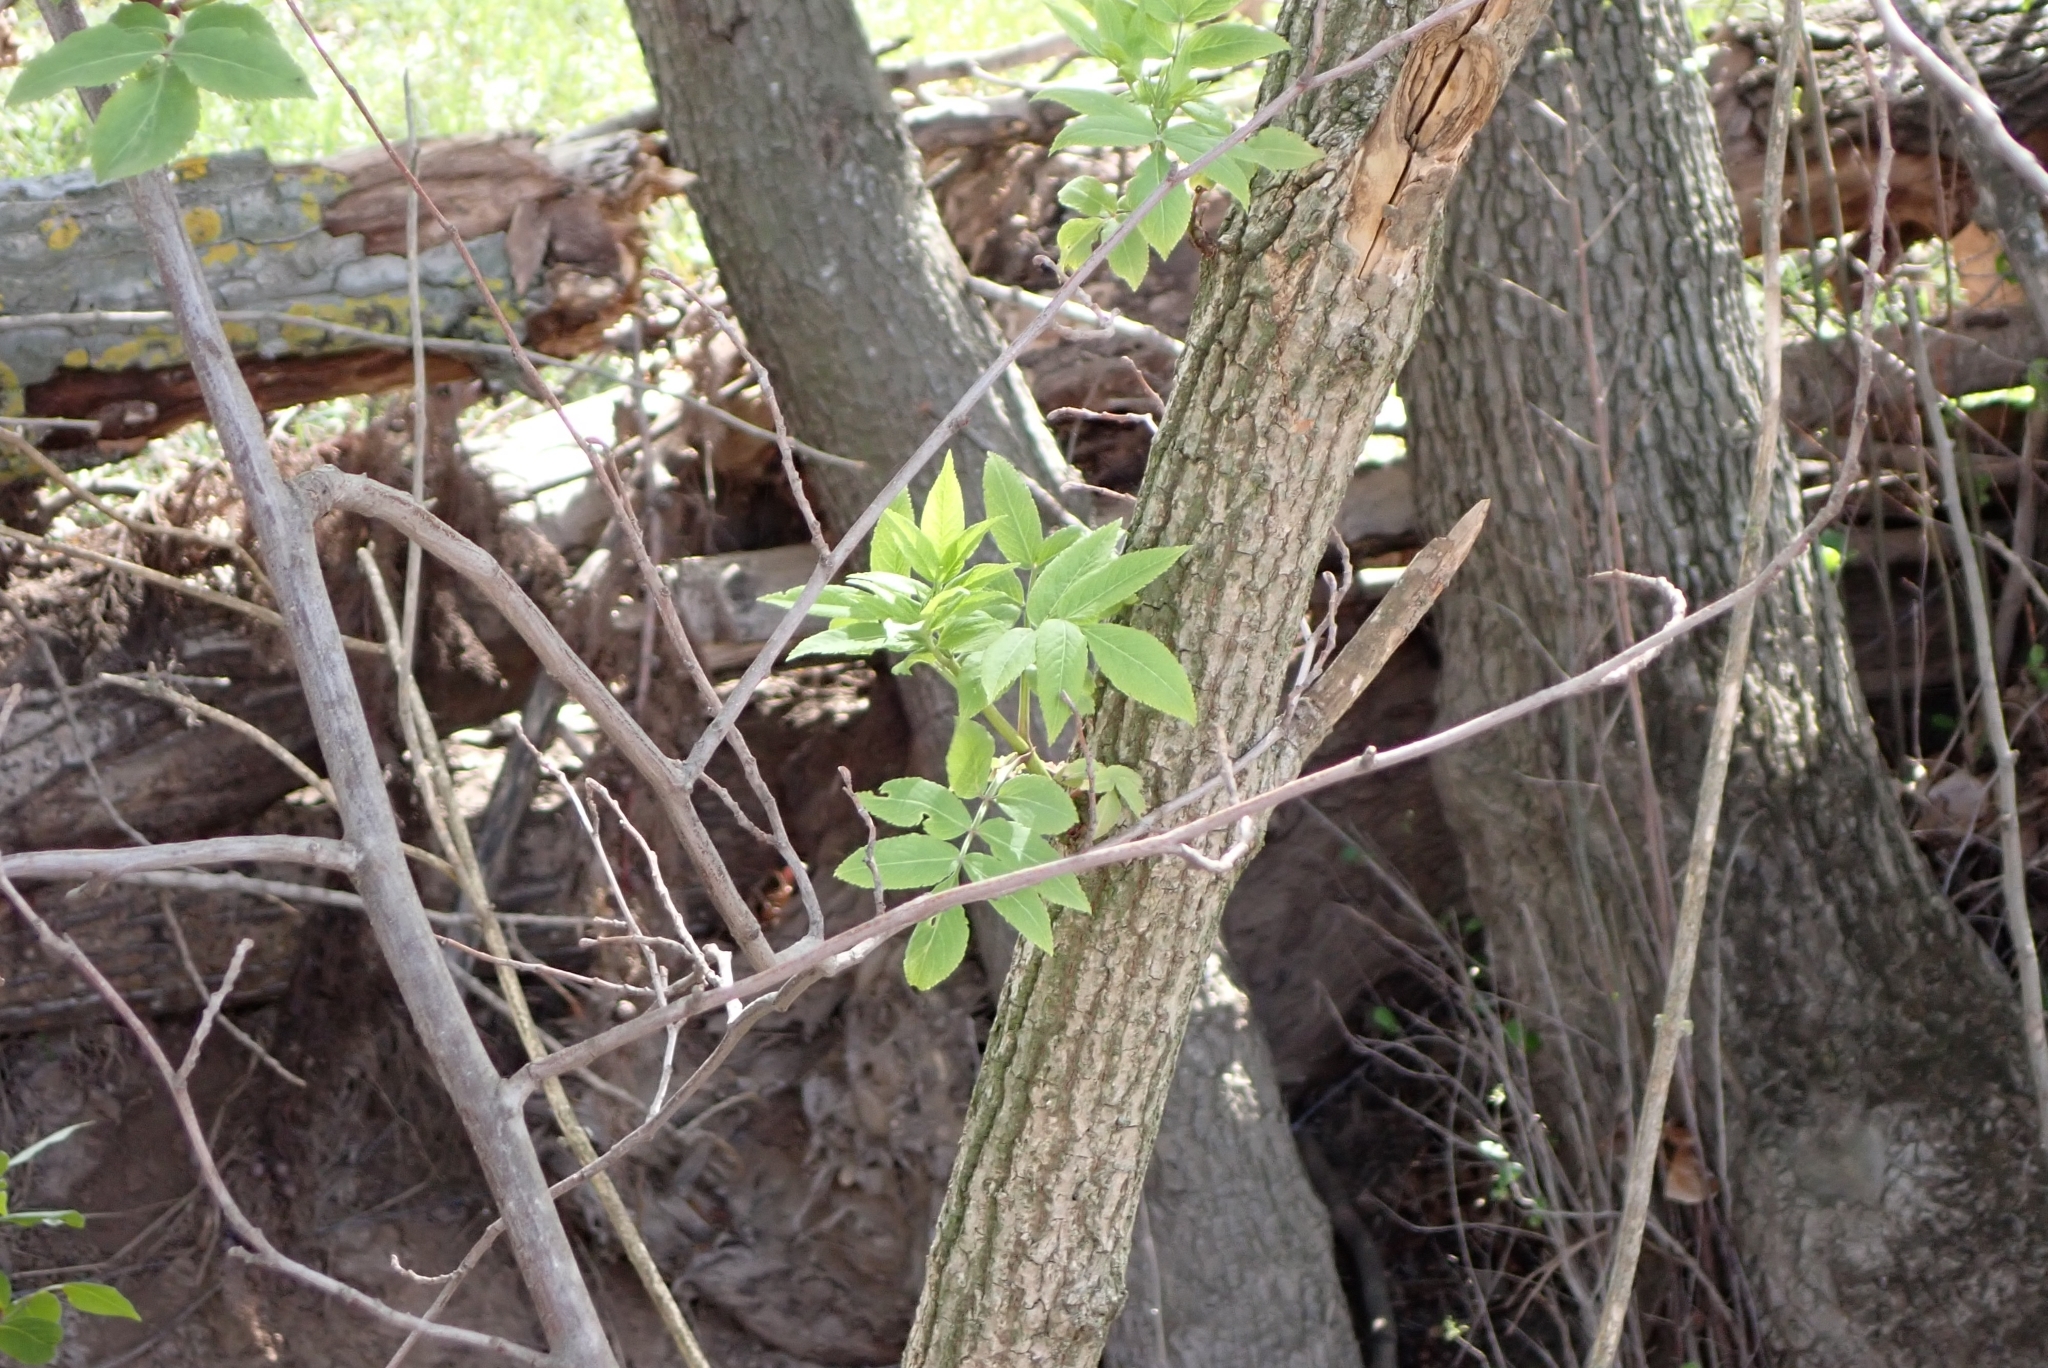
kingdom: Plantae
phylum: Tracheophyta
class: Magnoliopsida
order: Dipsacales
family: Viburnaceae
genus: Sambucus
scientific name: Sambucus nigra
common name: Elder
